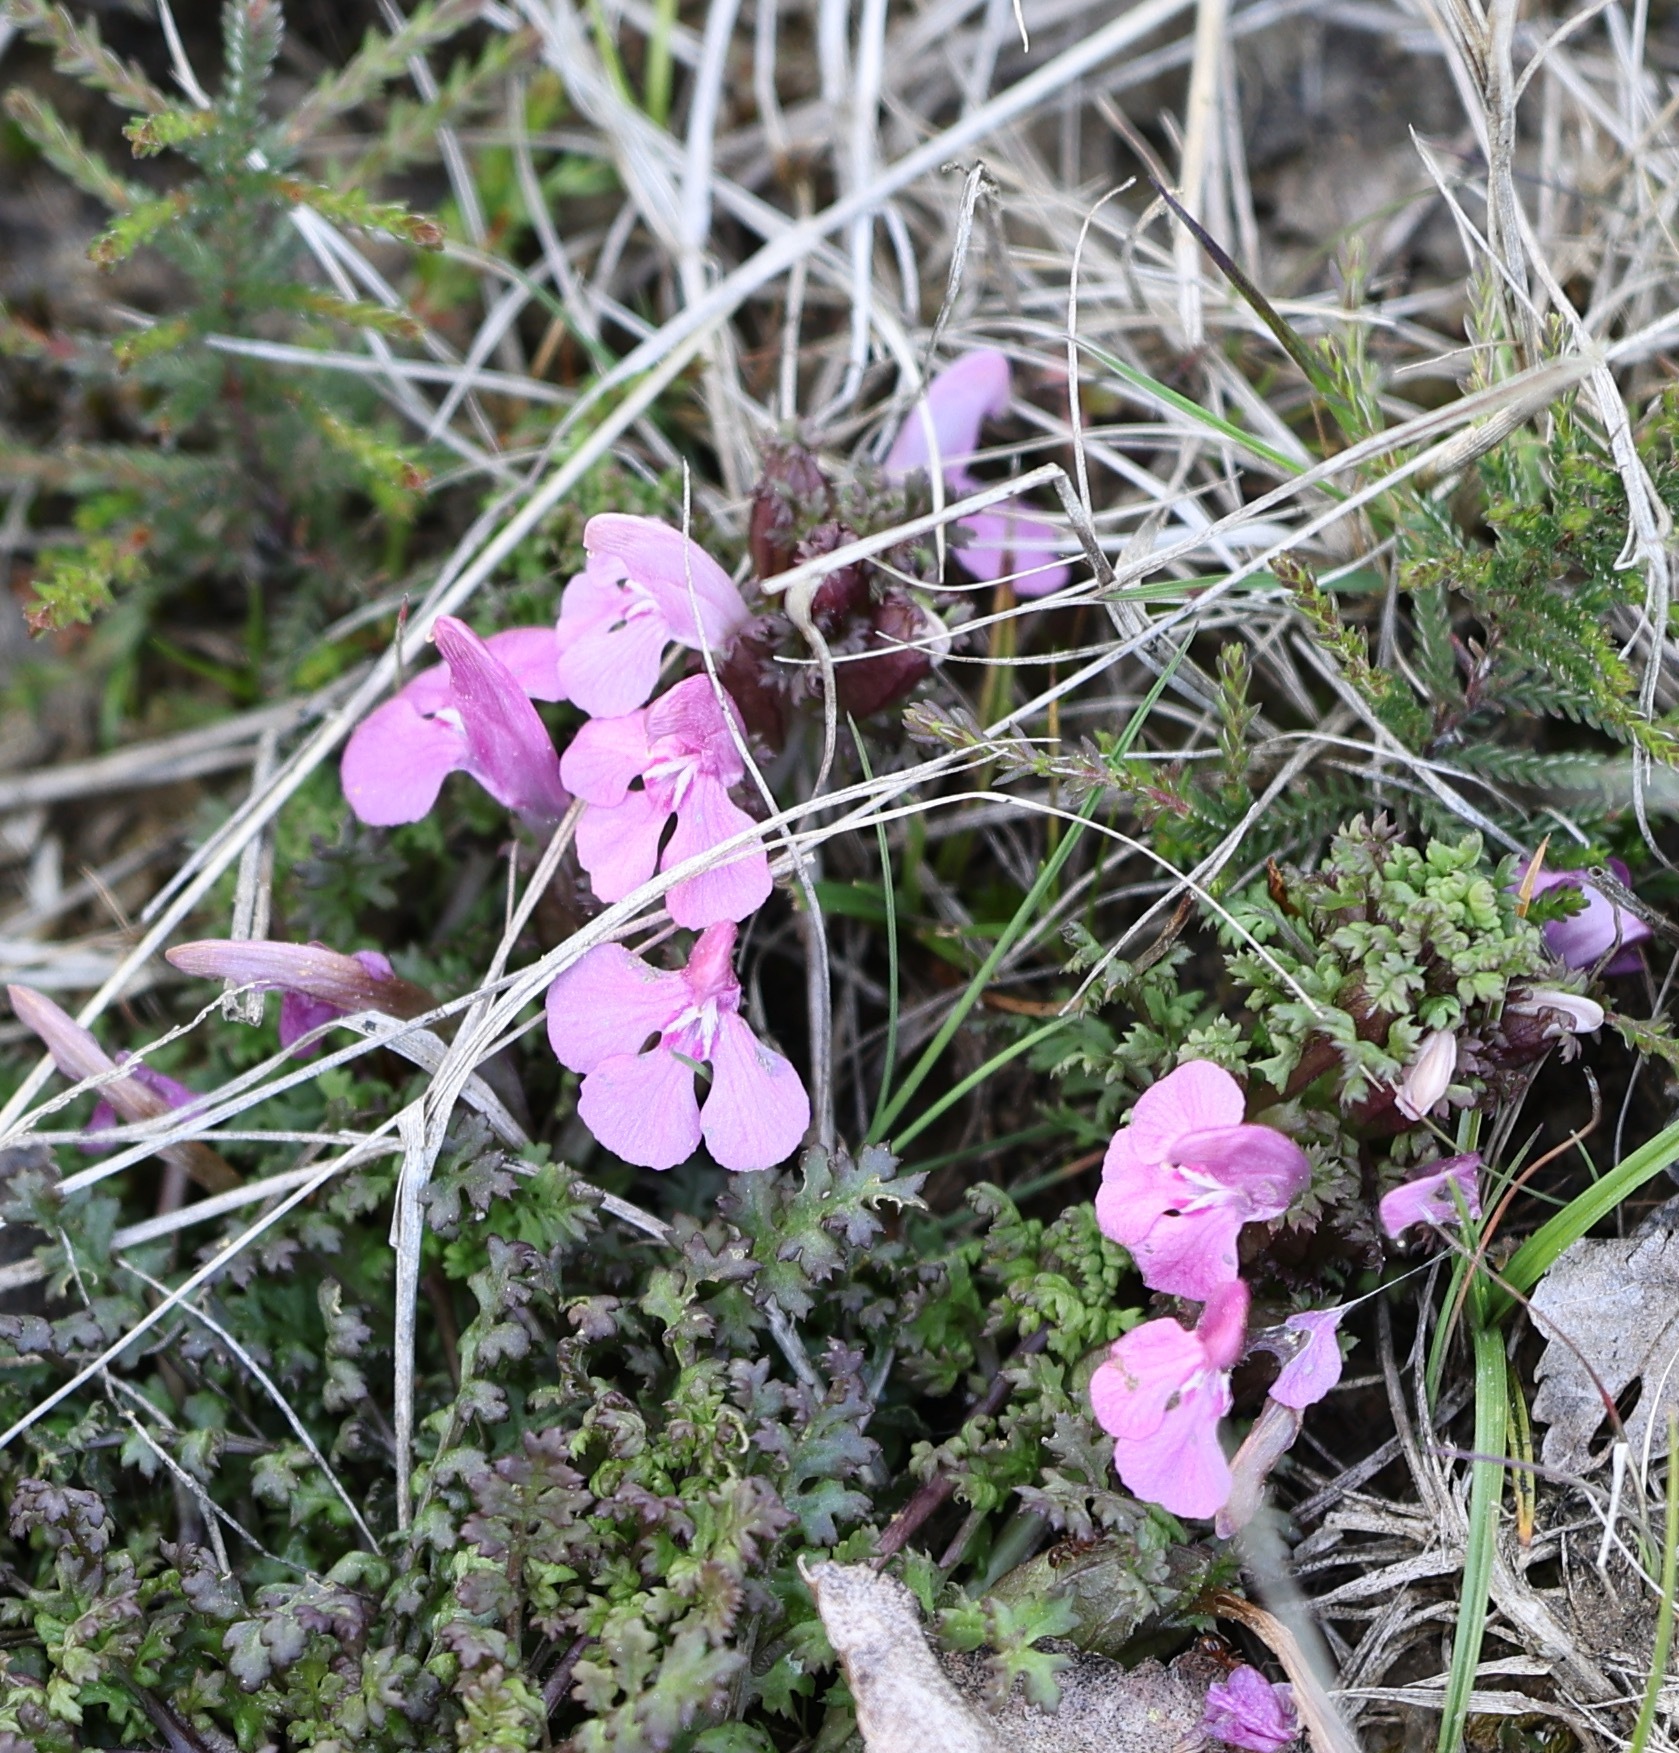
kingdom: Plantae
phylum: Tracheophyta
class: Magnoliopsida
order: Lamiales
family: Orobanchaceae
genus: Pedicularis
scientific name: Pedicularis sylvatica
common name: Lousewort
